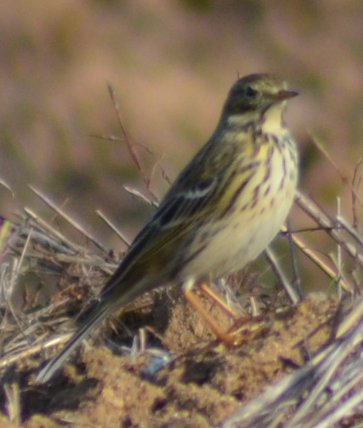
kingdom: Animalia
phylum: Chordata
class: Aves
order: Passeriformes
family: Motacillidae
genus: Anthus
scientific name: Anthus pratensis
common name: Meadow pipit
